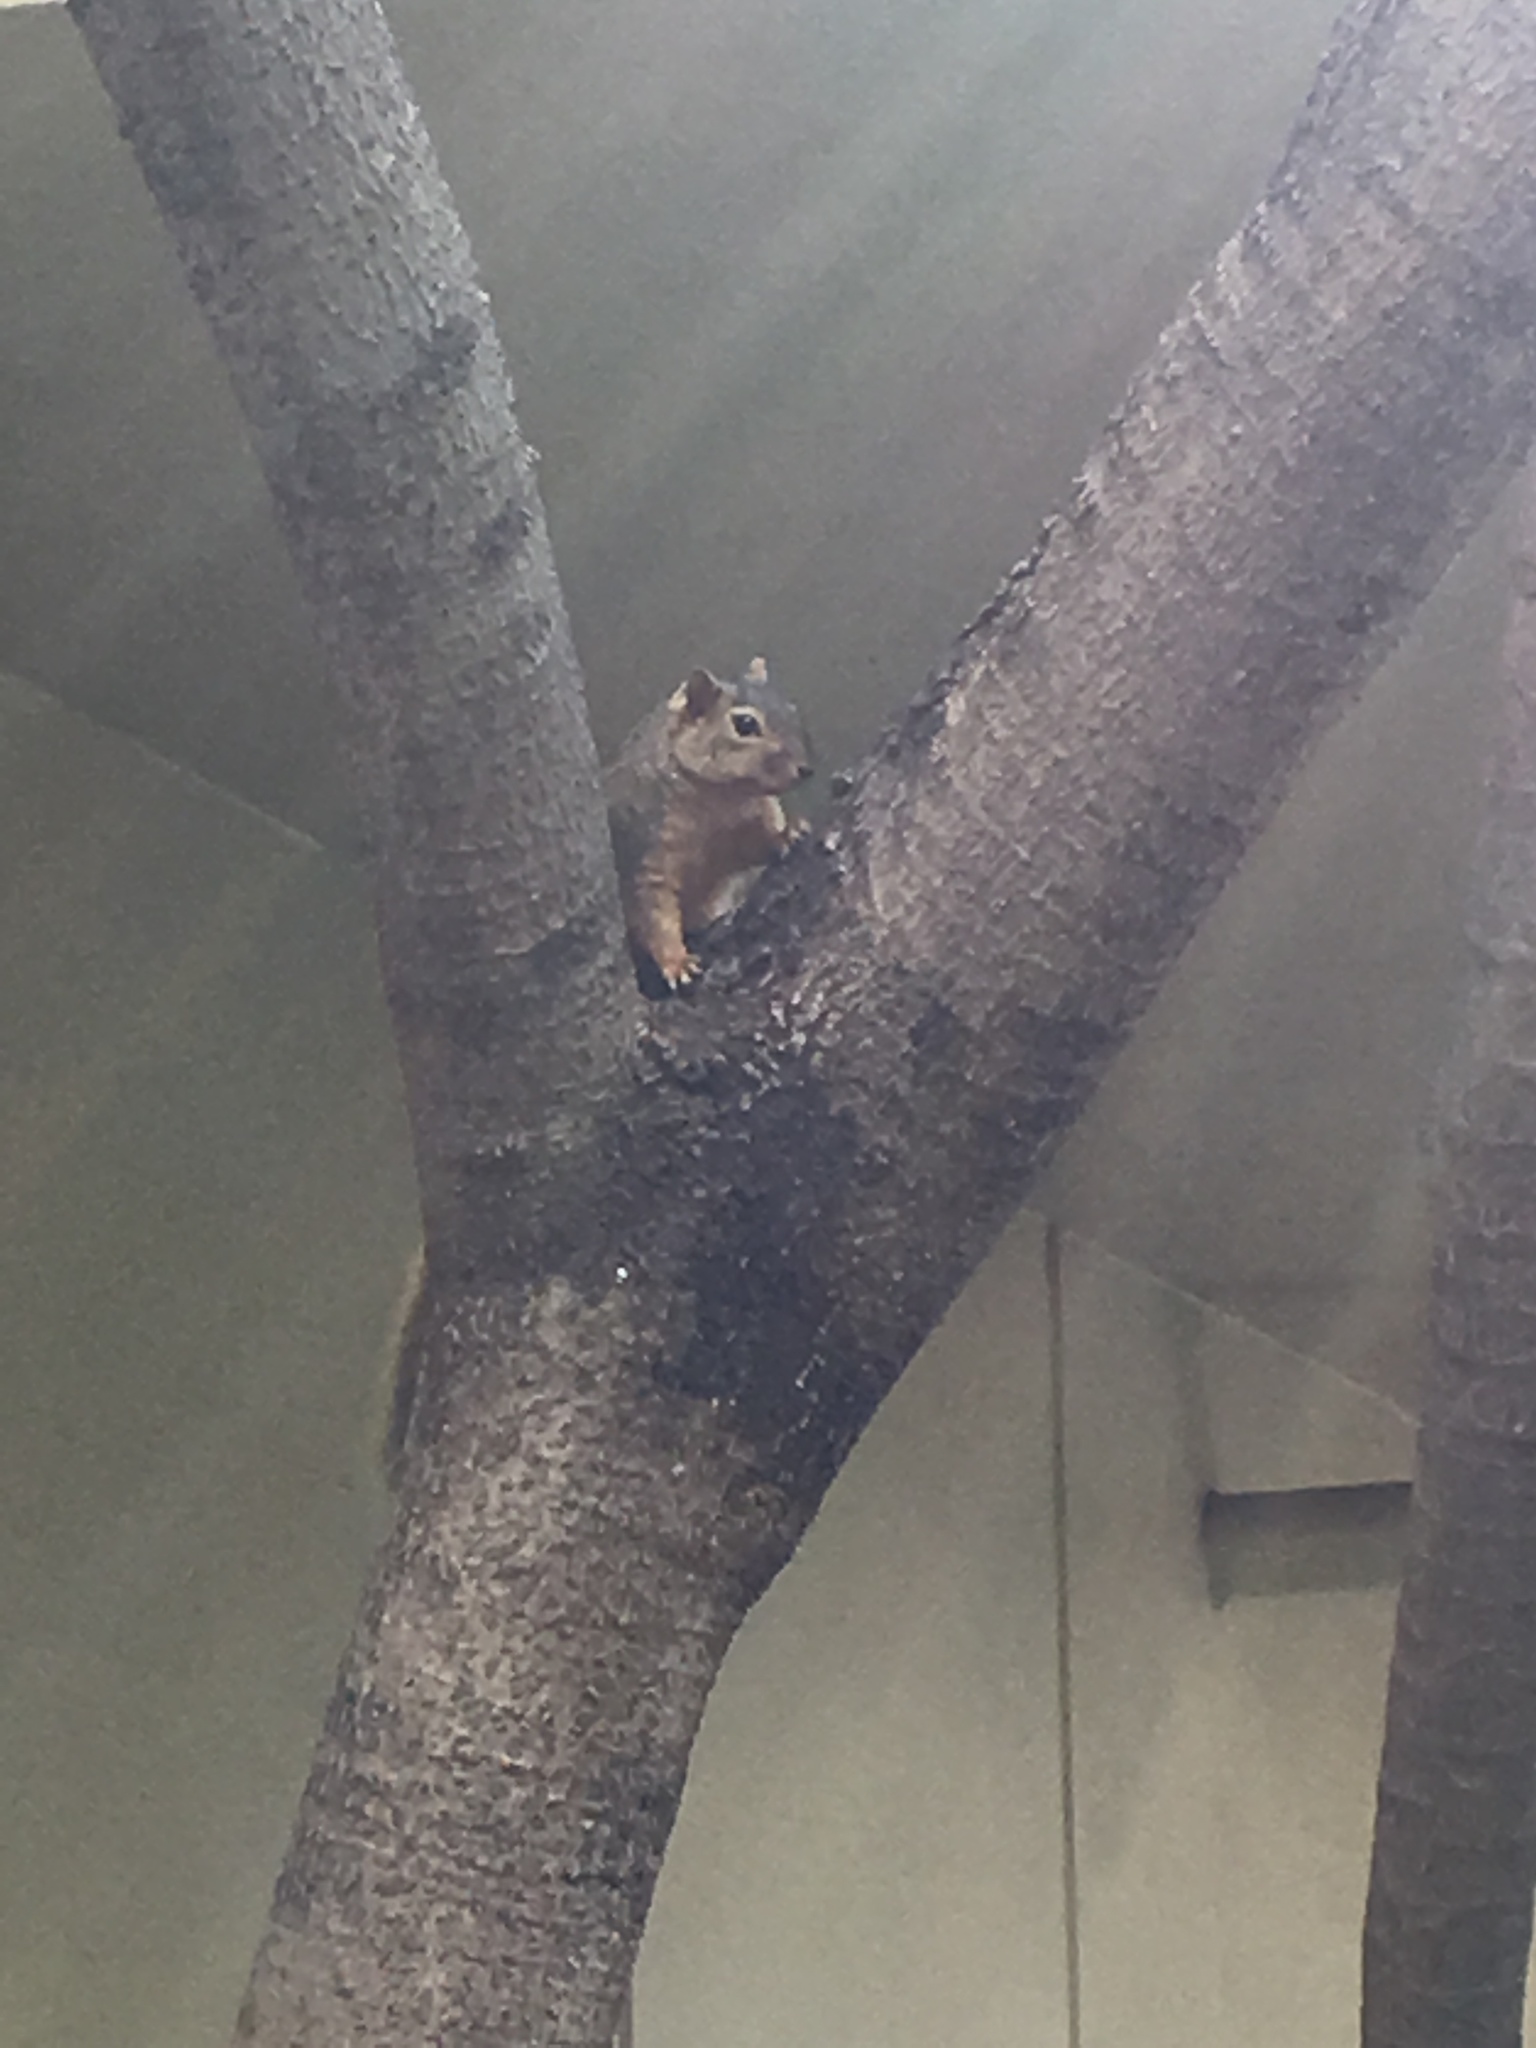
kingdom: Animalia
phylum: Chordata
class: Mammalia
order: Rodentia
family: Sciuridae
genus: Sciurus
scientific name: Sciurus niger
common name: Fox squirrel
